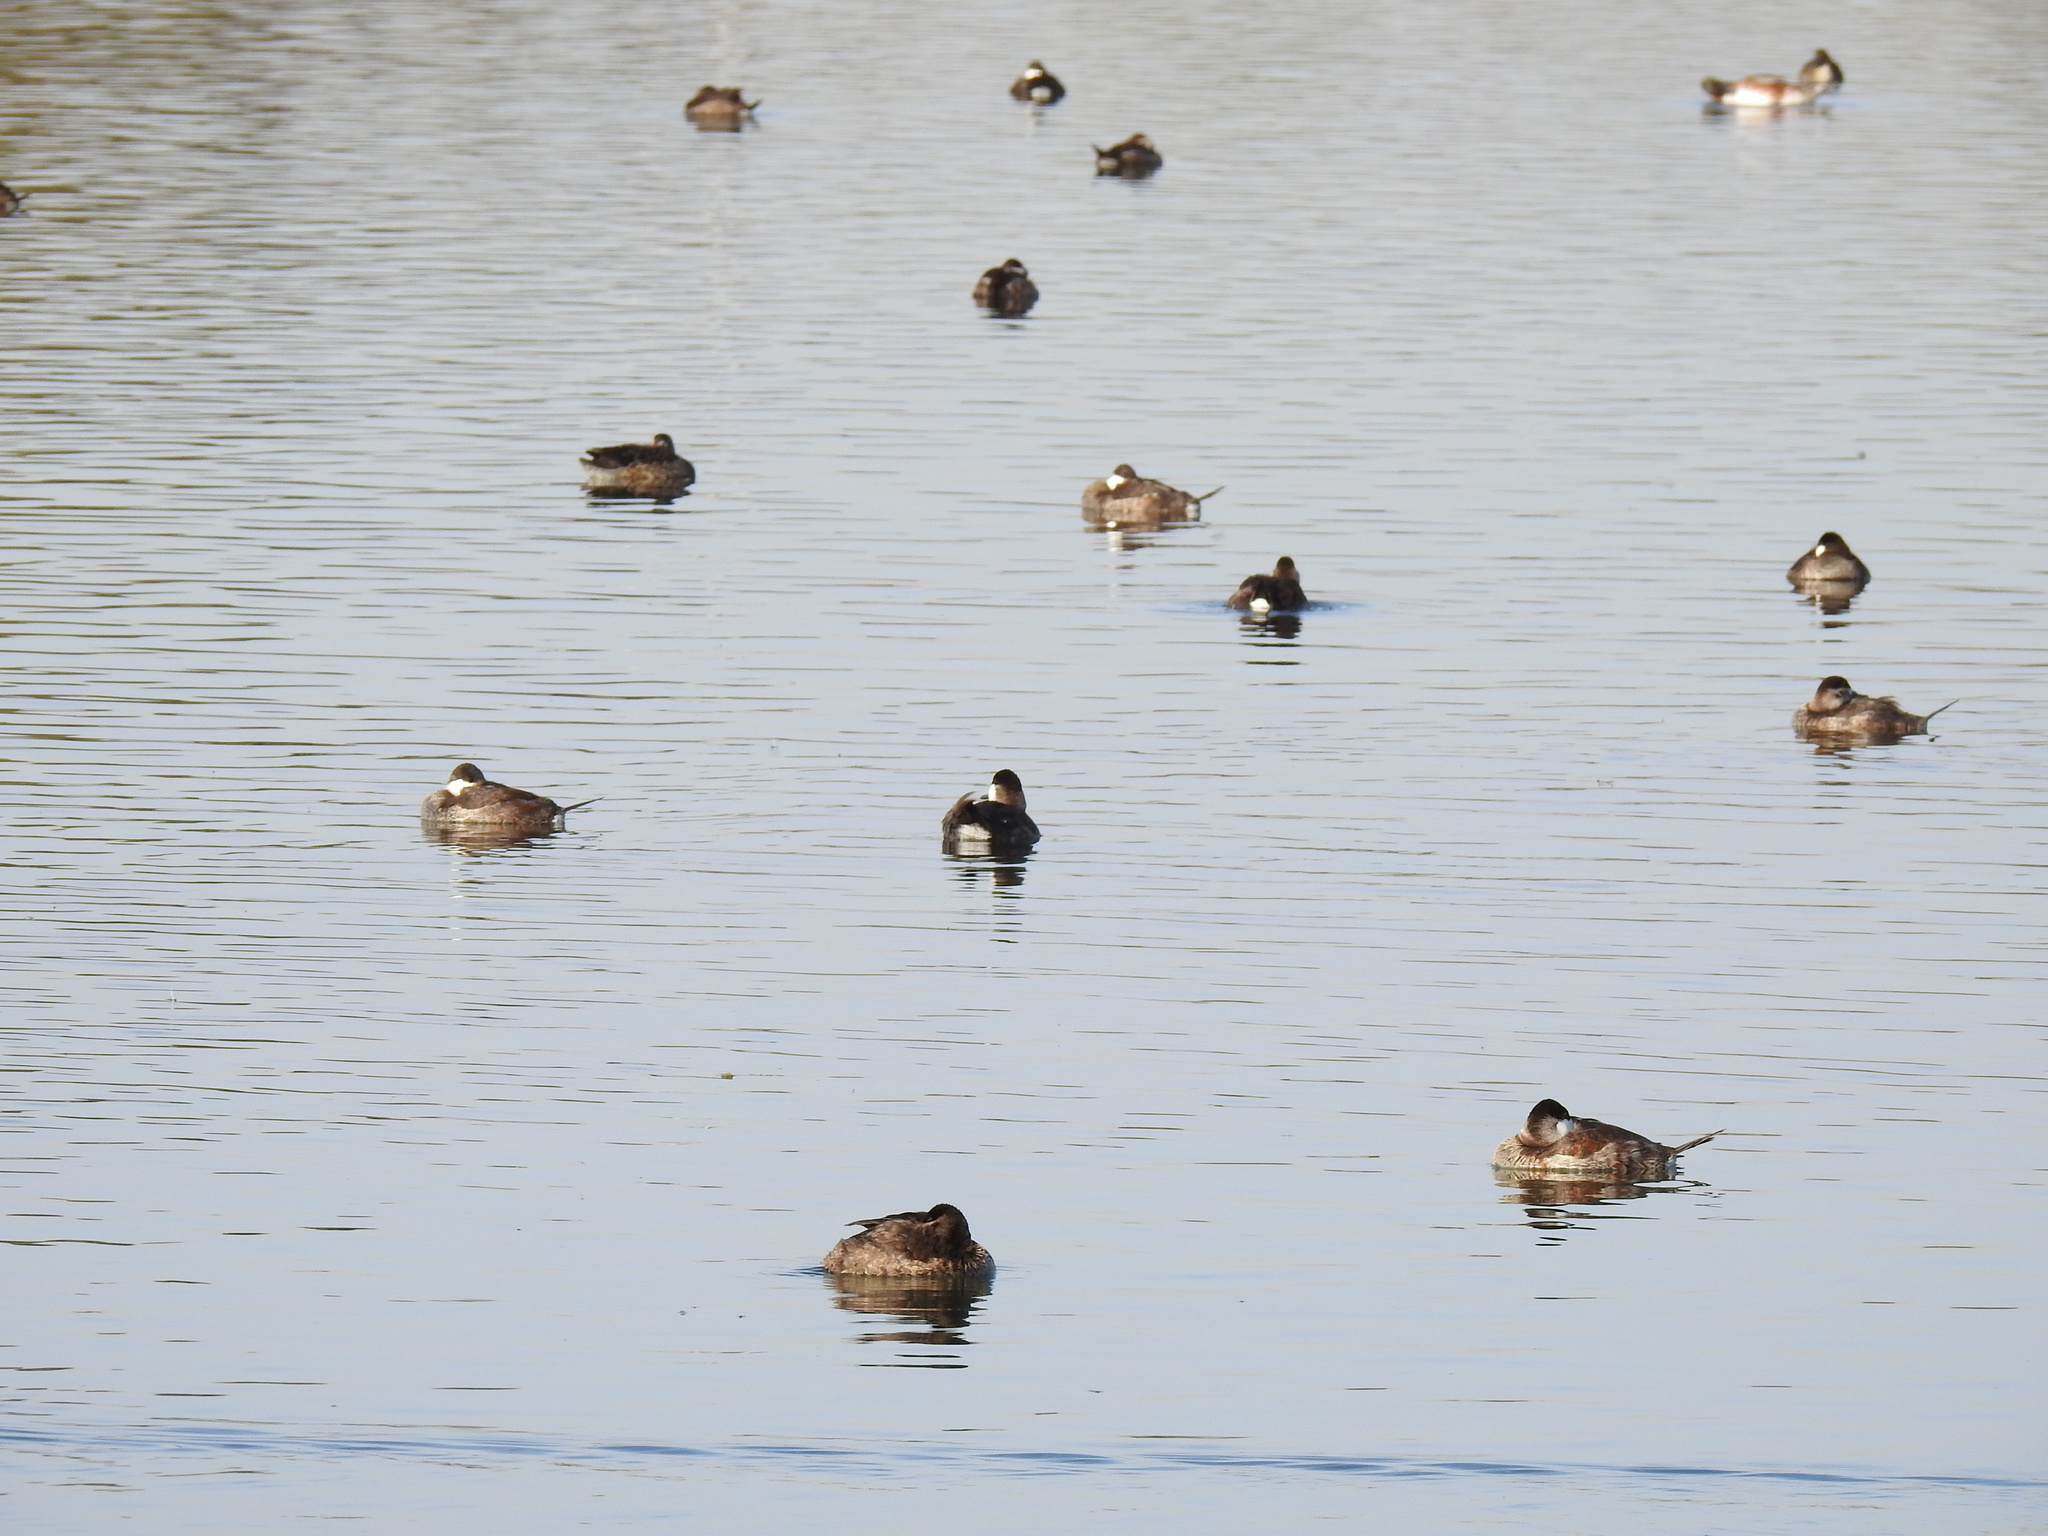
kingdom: Animalia
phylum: Chordata
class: Aves
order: Anseriformes
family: Anatidae
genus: Oxyura
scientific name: Oxyura jamaicensis
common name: Ruddy duck
